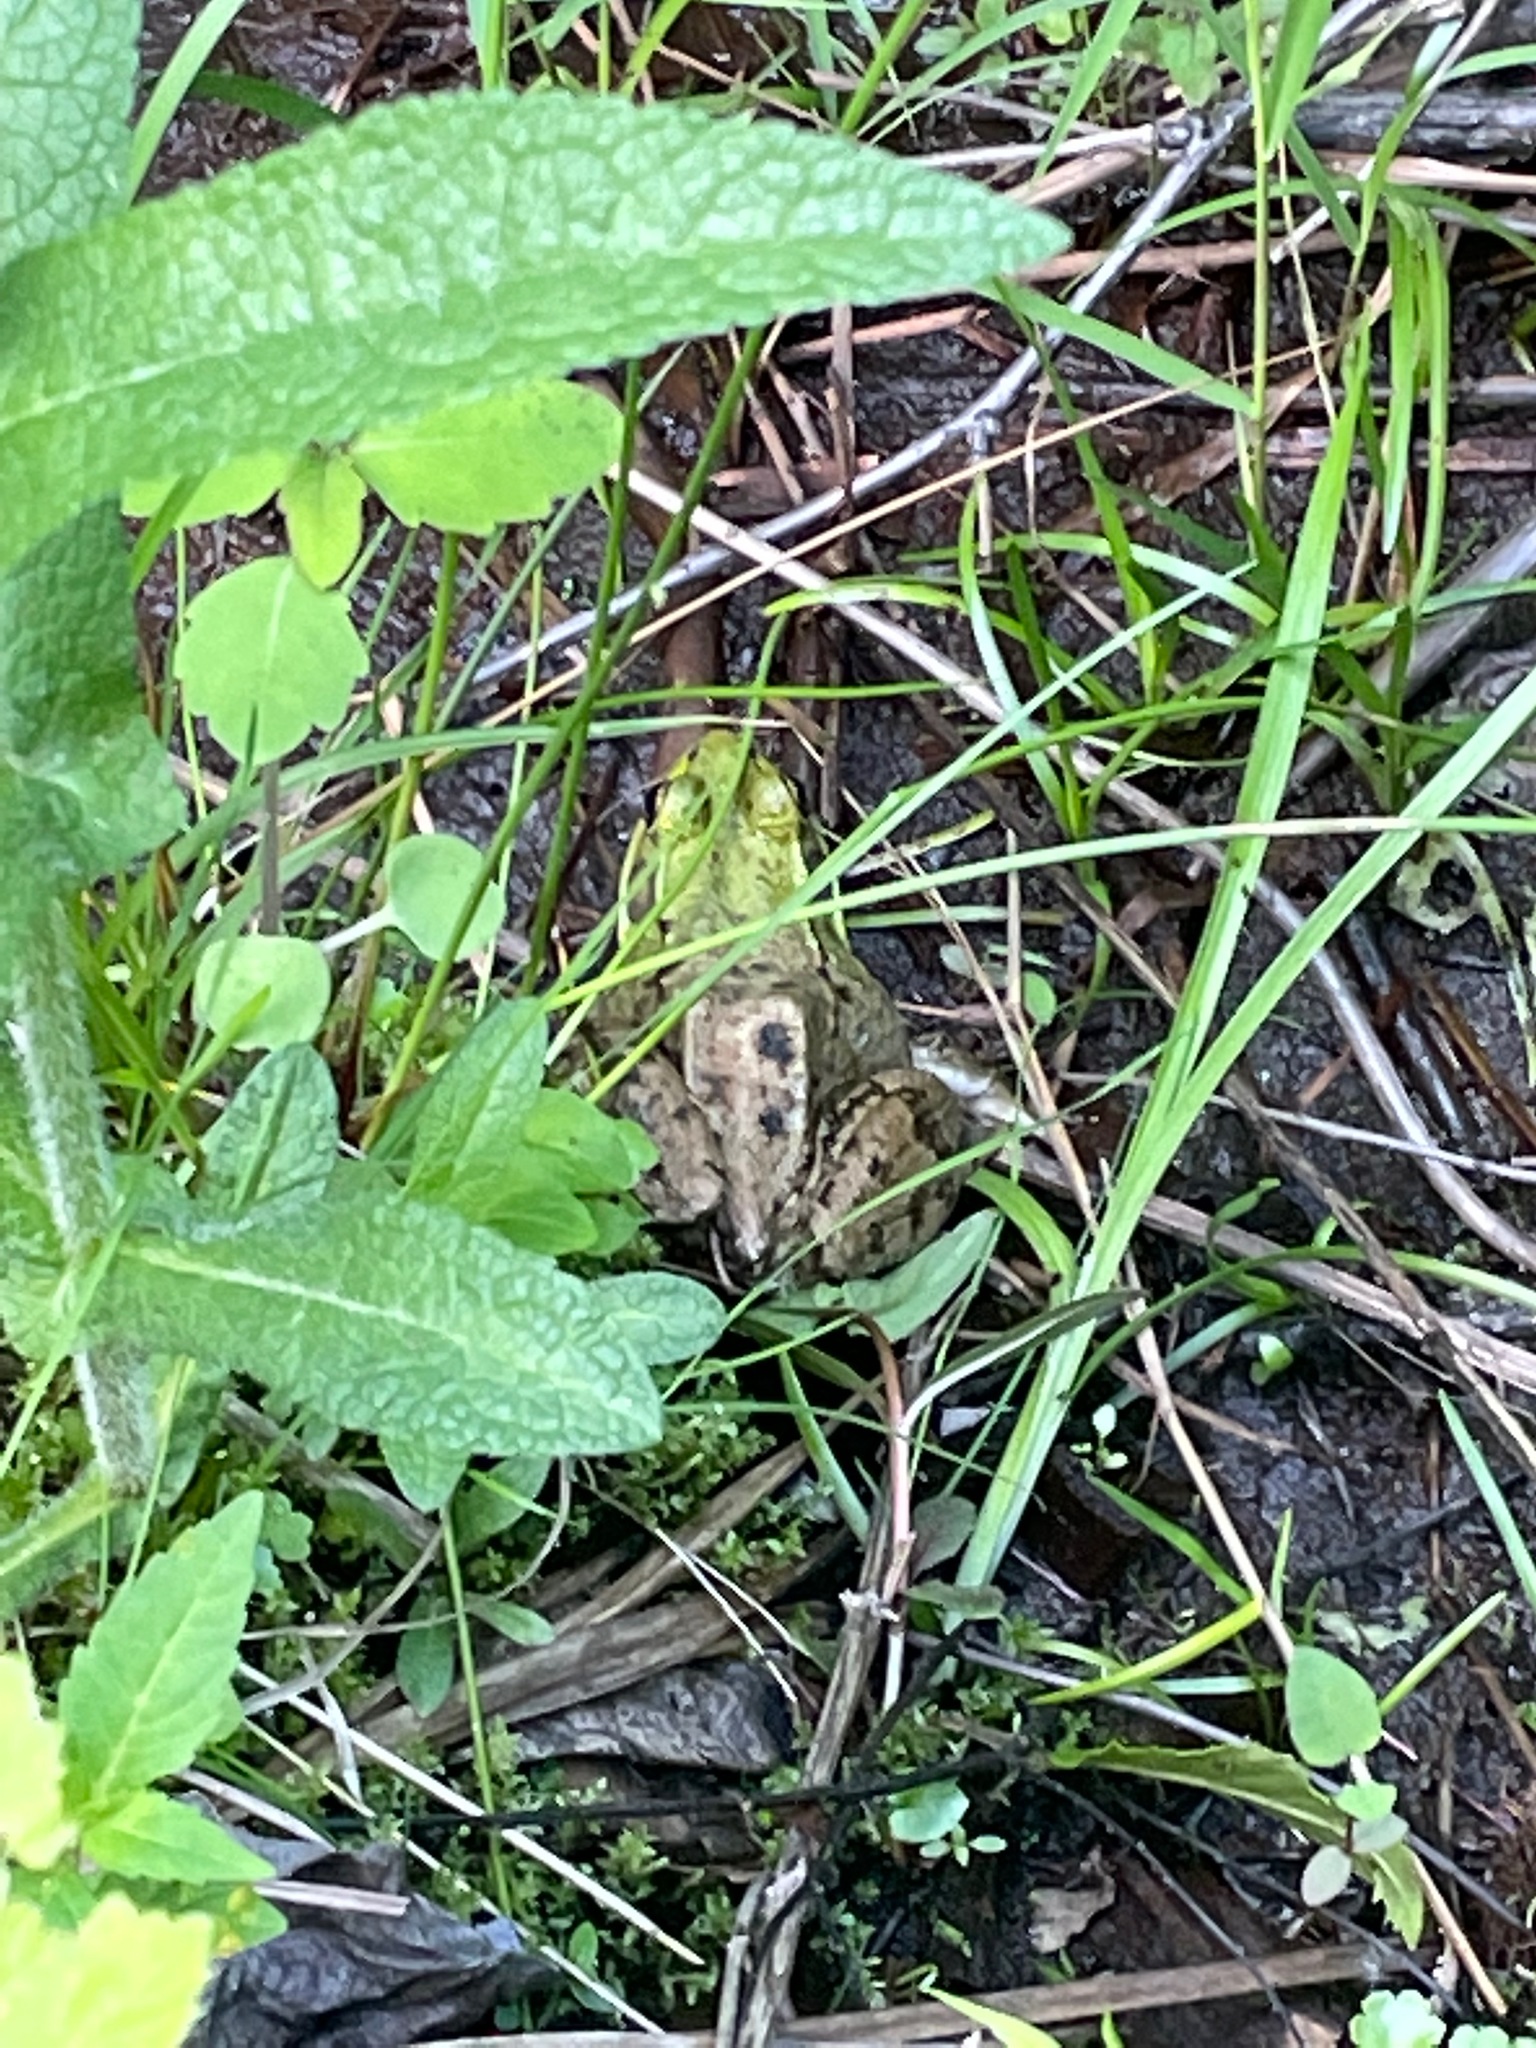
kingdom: Animalia
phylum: Chordata
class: Amphibia
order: Anura
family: Ranidae
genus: Lithobates
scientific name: Lithobates clamitans
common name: Green frog
